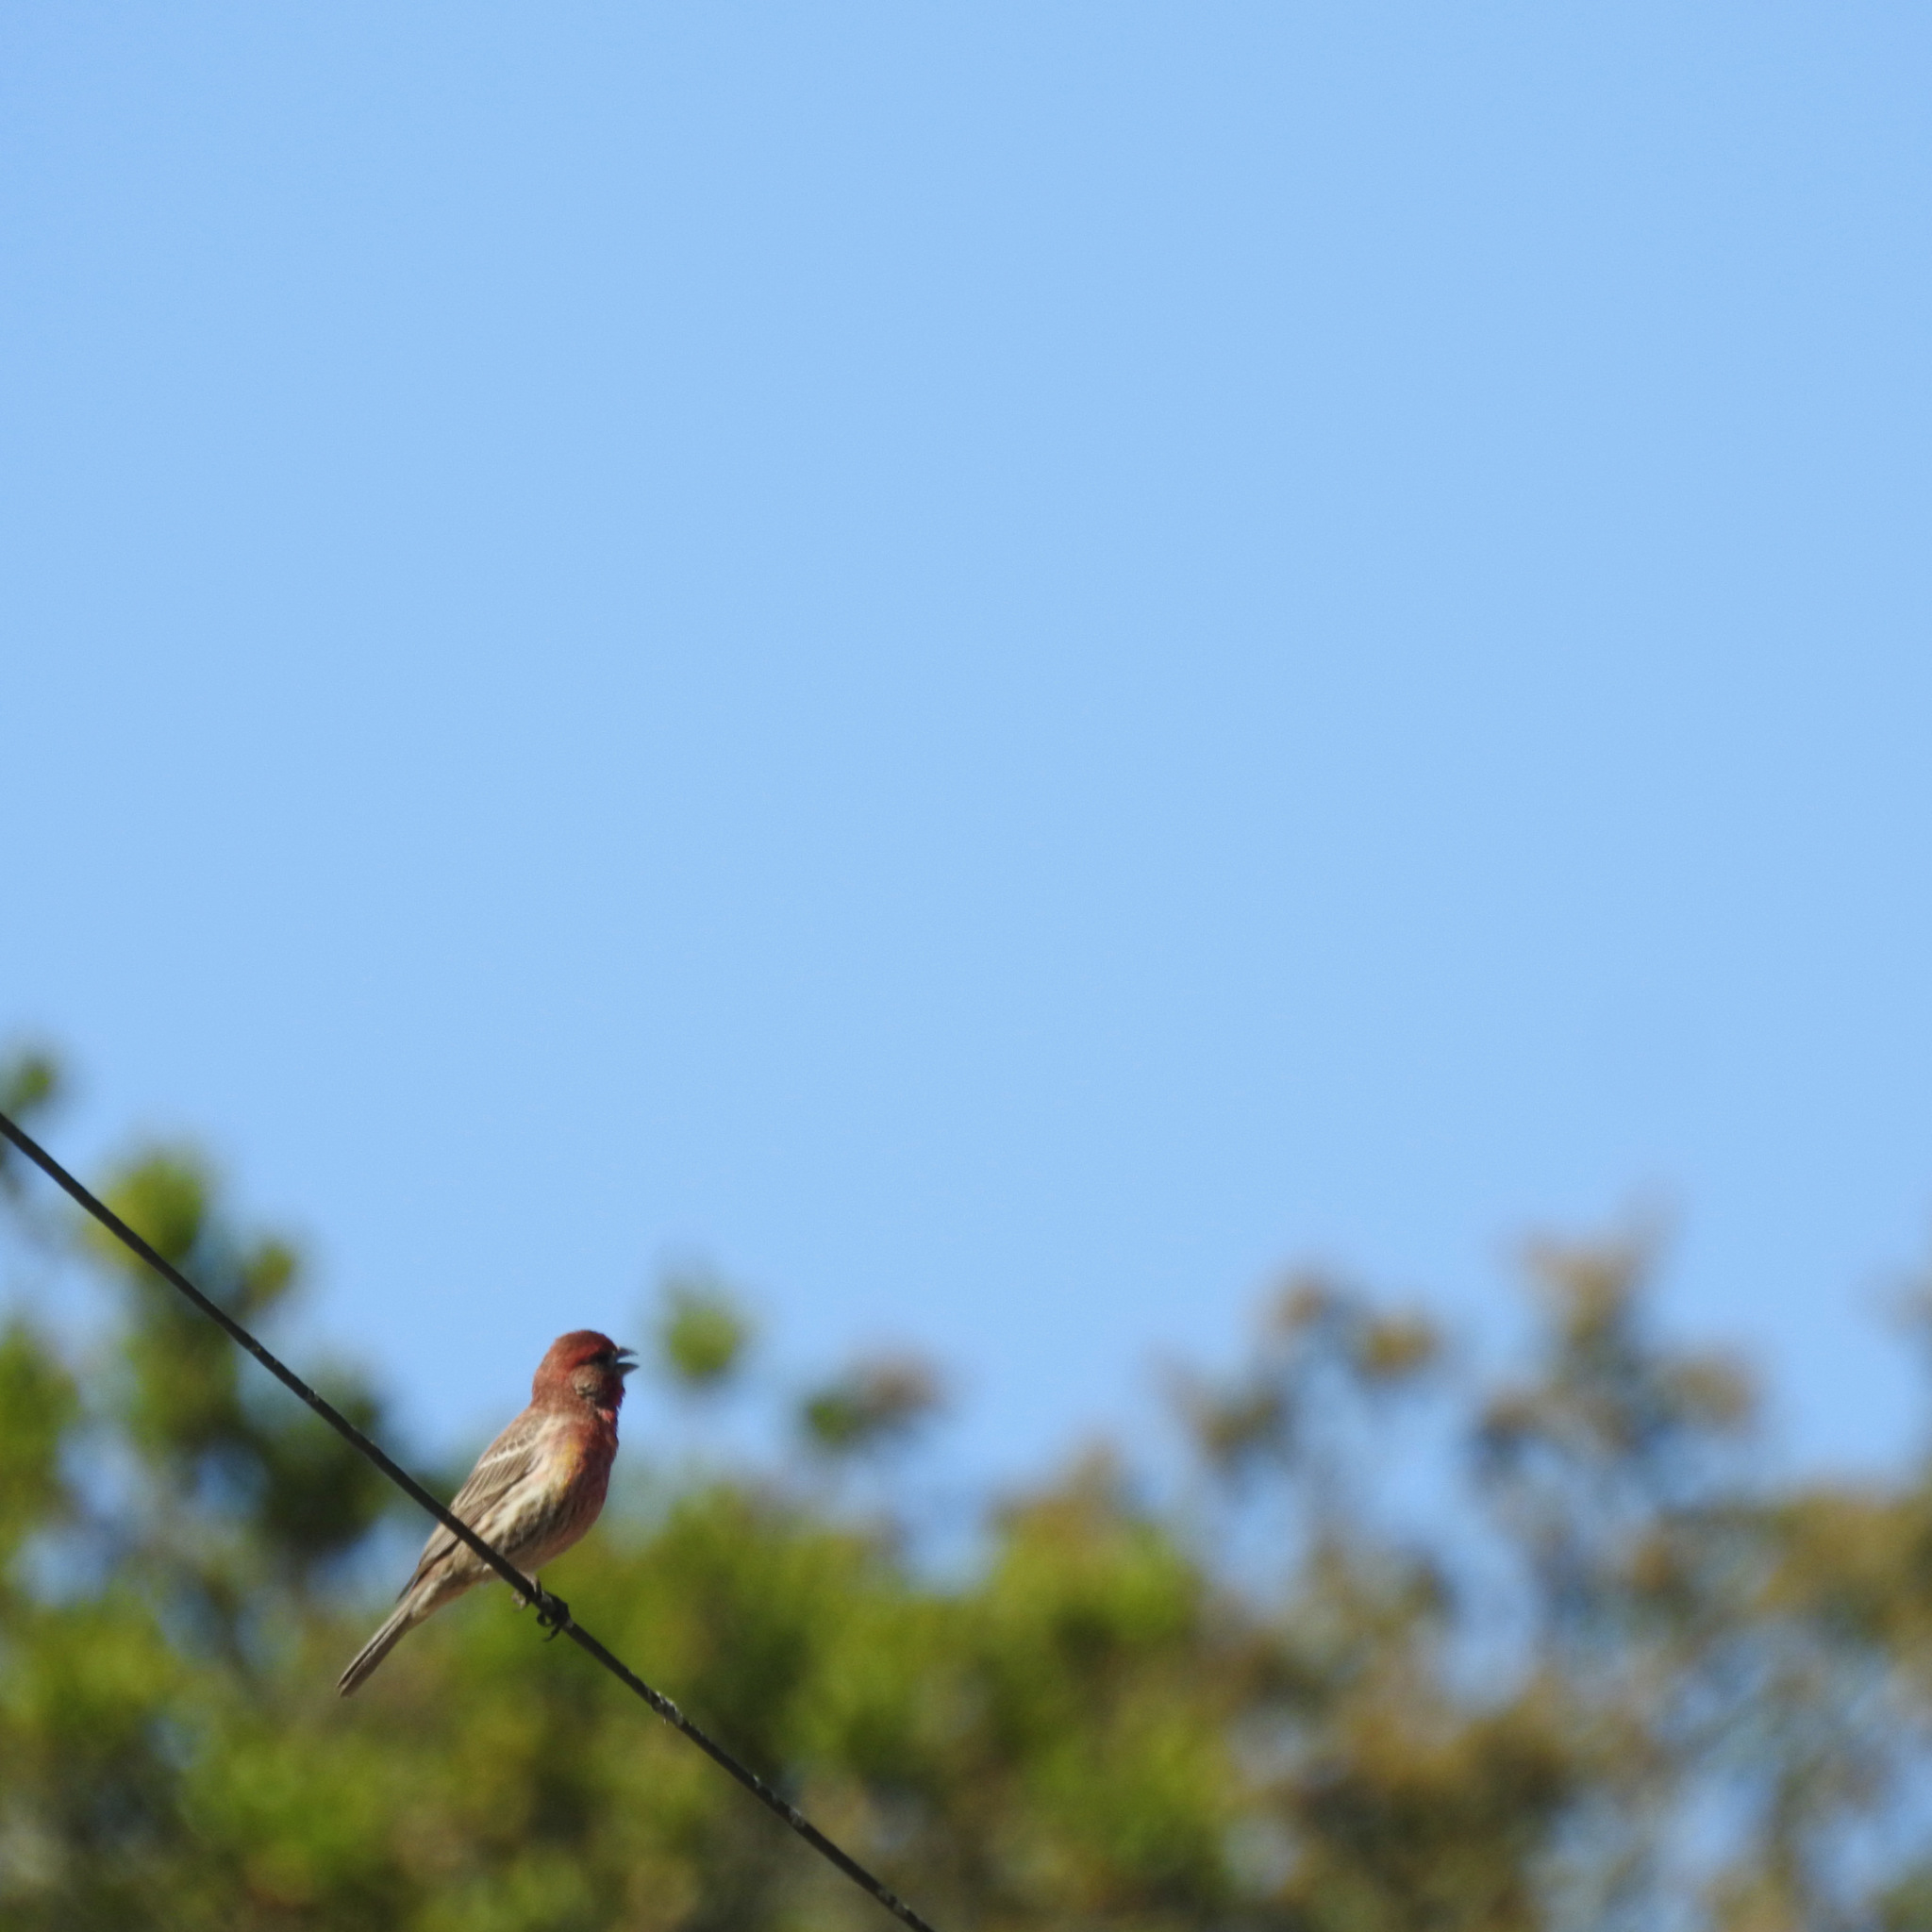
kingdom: Animalia
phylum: Chordata
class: Aves
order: Passeriformes
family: Fringillidae
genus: Haemorhous
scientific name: Haemorhous mexicanus
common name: House finch
